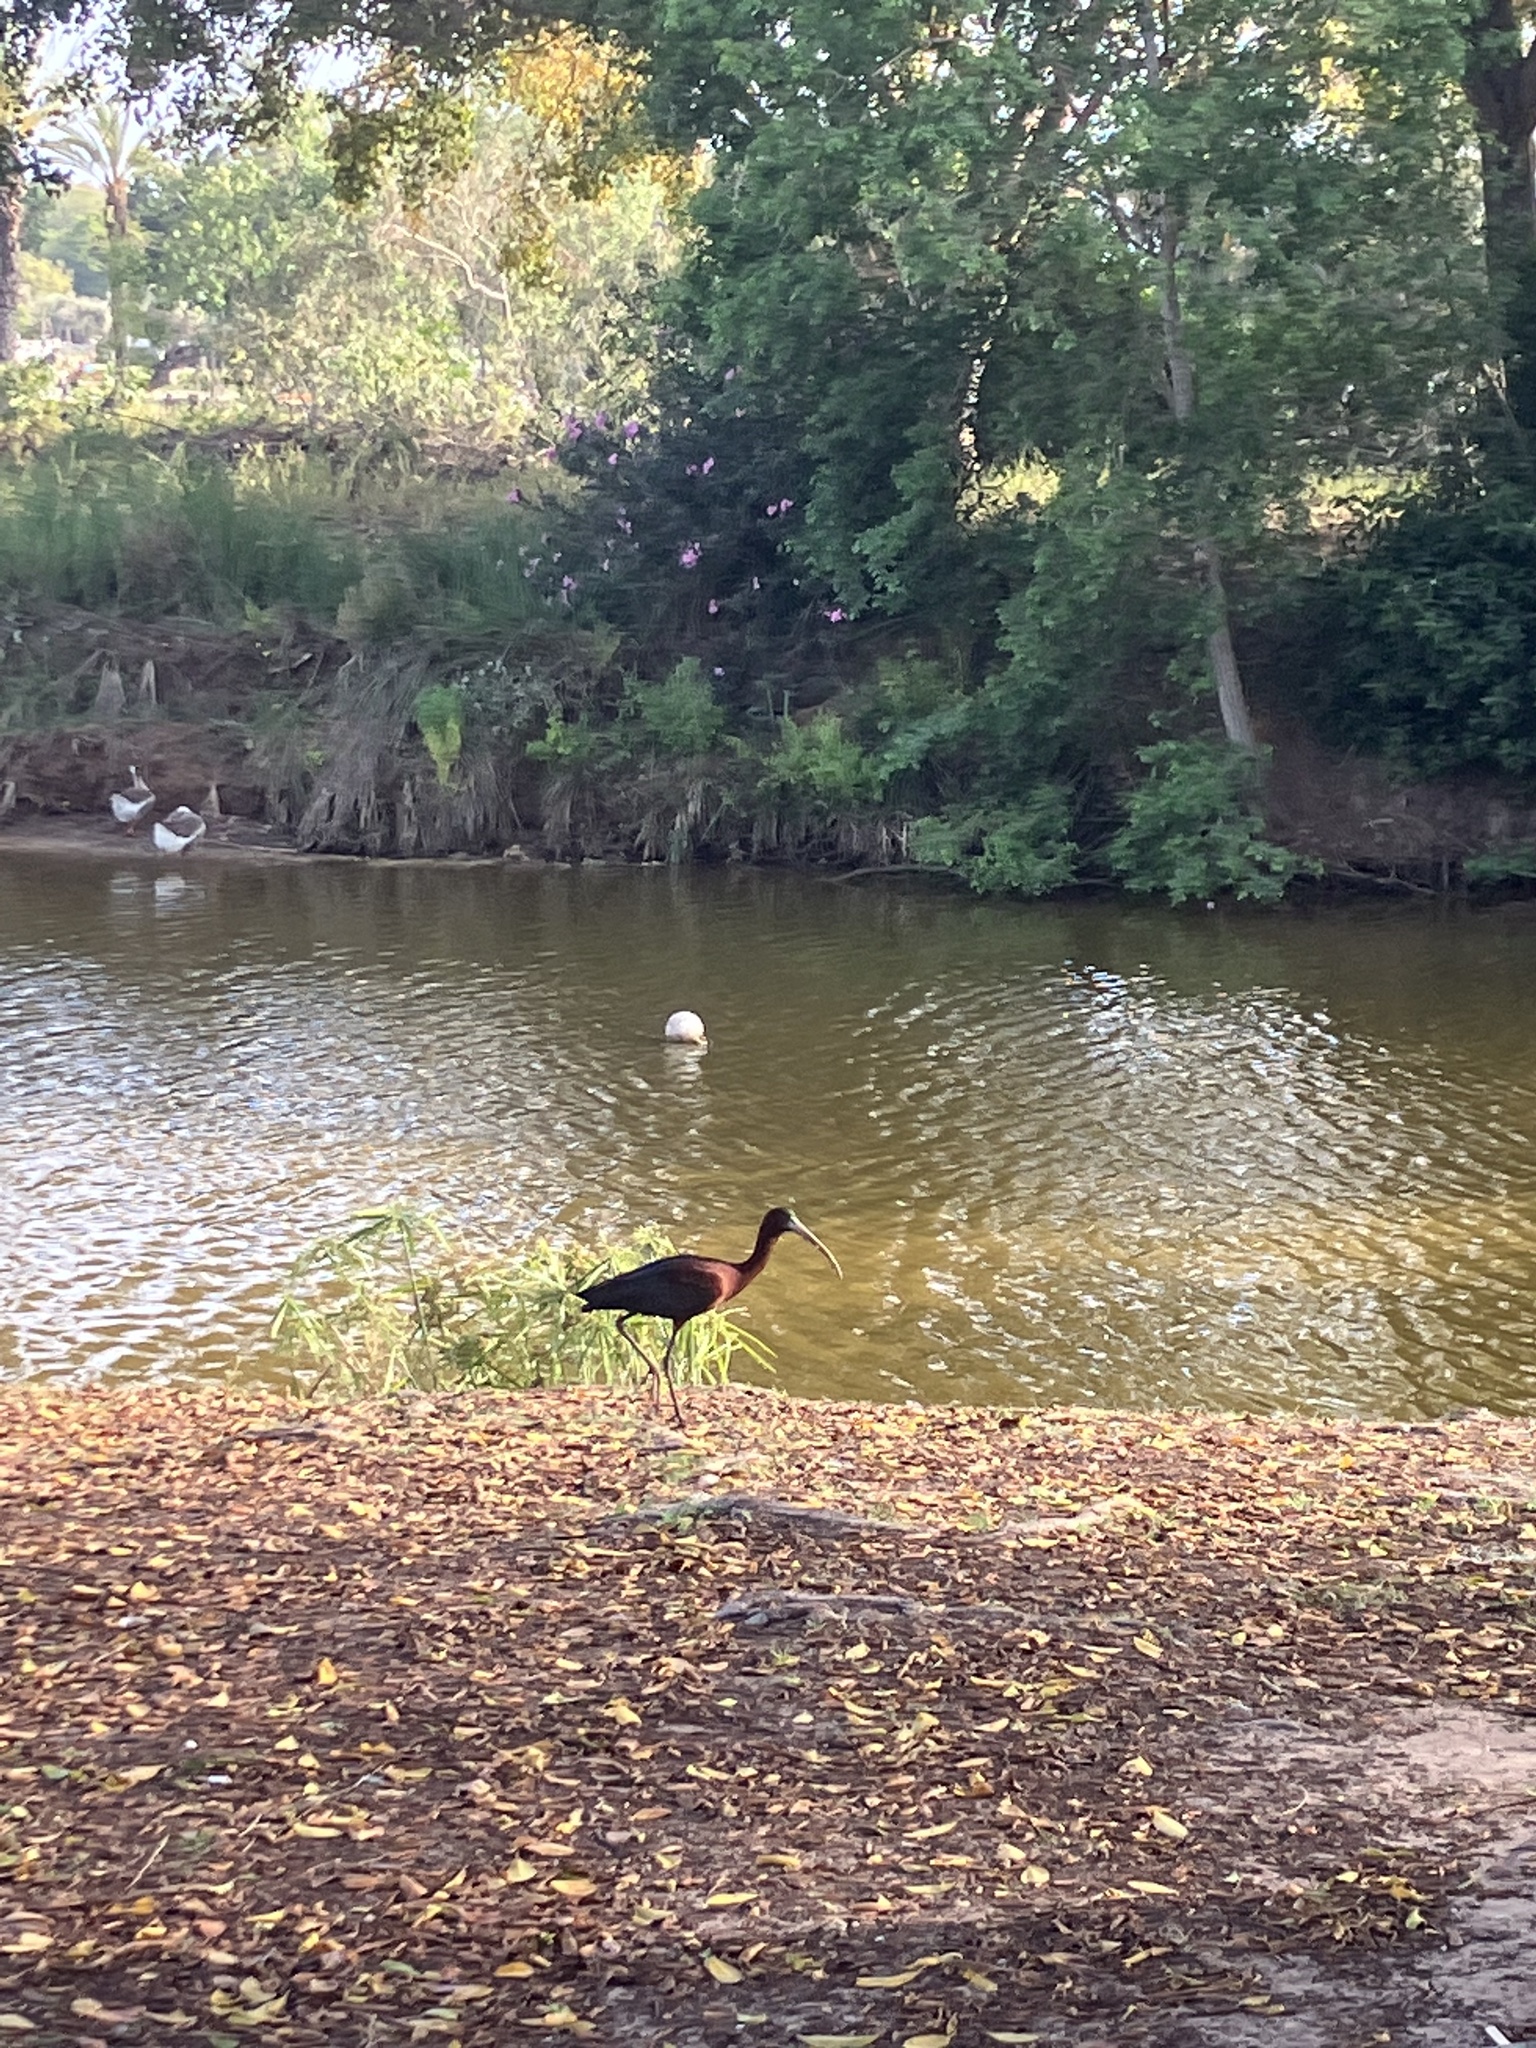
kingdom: Animalia
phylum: Chordata
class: Aves
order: Pelecaniformes
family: Threskiornithidae
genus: Plegadis
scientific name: Plegadis falcinellus
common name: Glossy ibis
